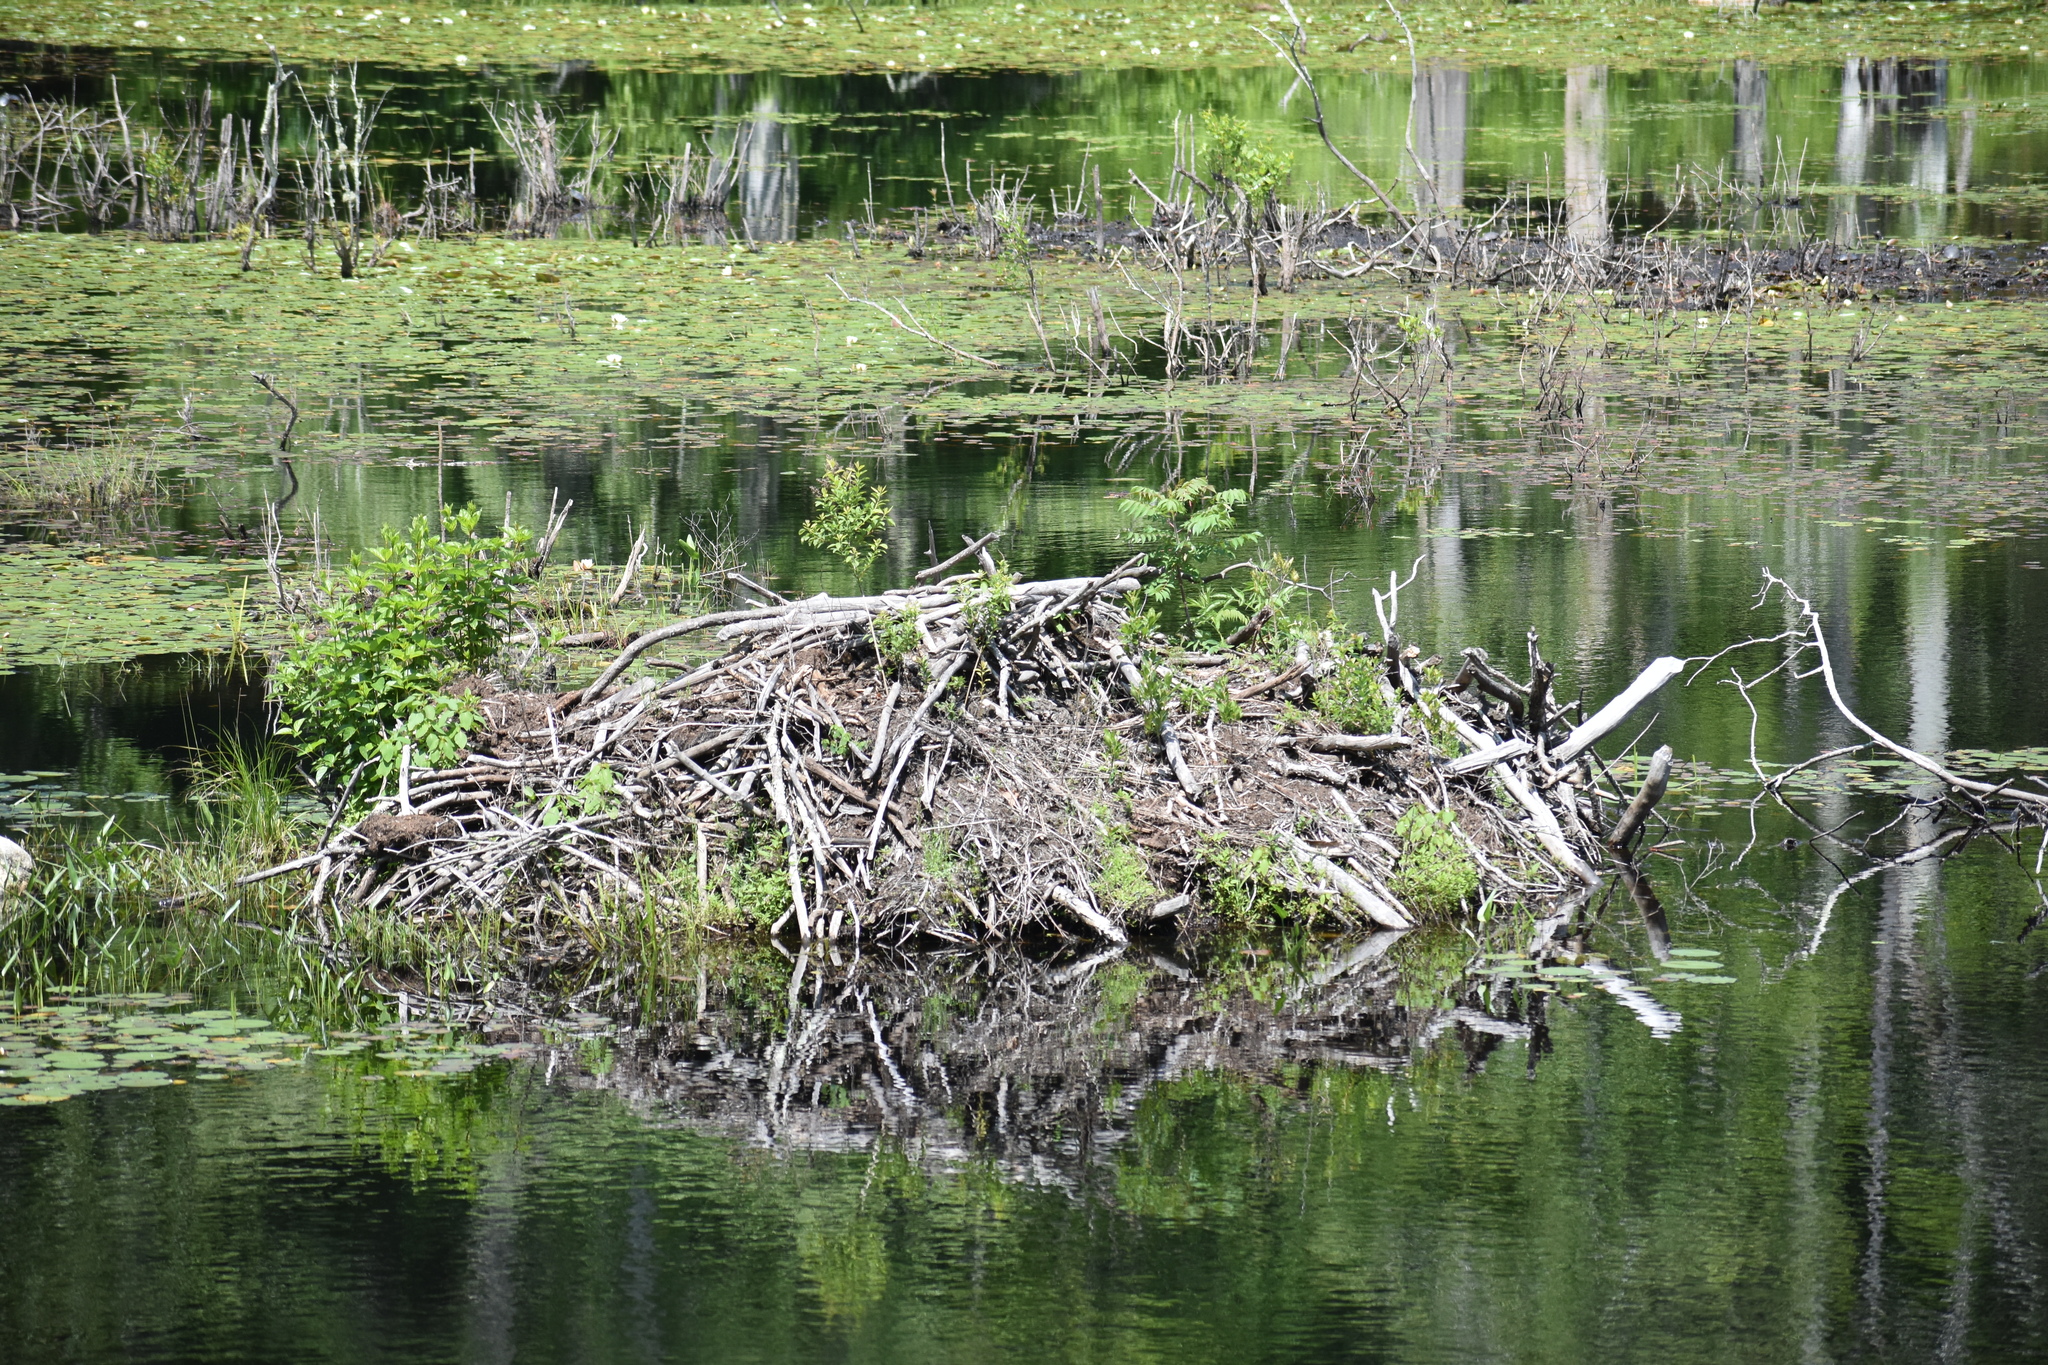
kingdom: Animalia
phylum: Chordata
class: Mammalia
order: Rodentia
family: Castoridae
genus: Castor
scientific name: Castor canadensis
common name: American beaver
